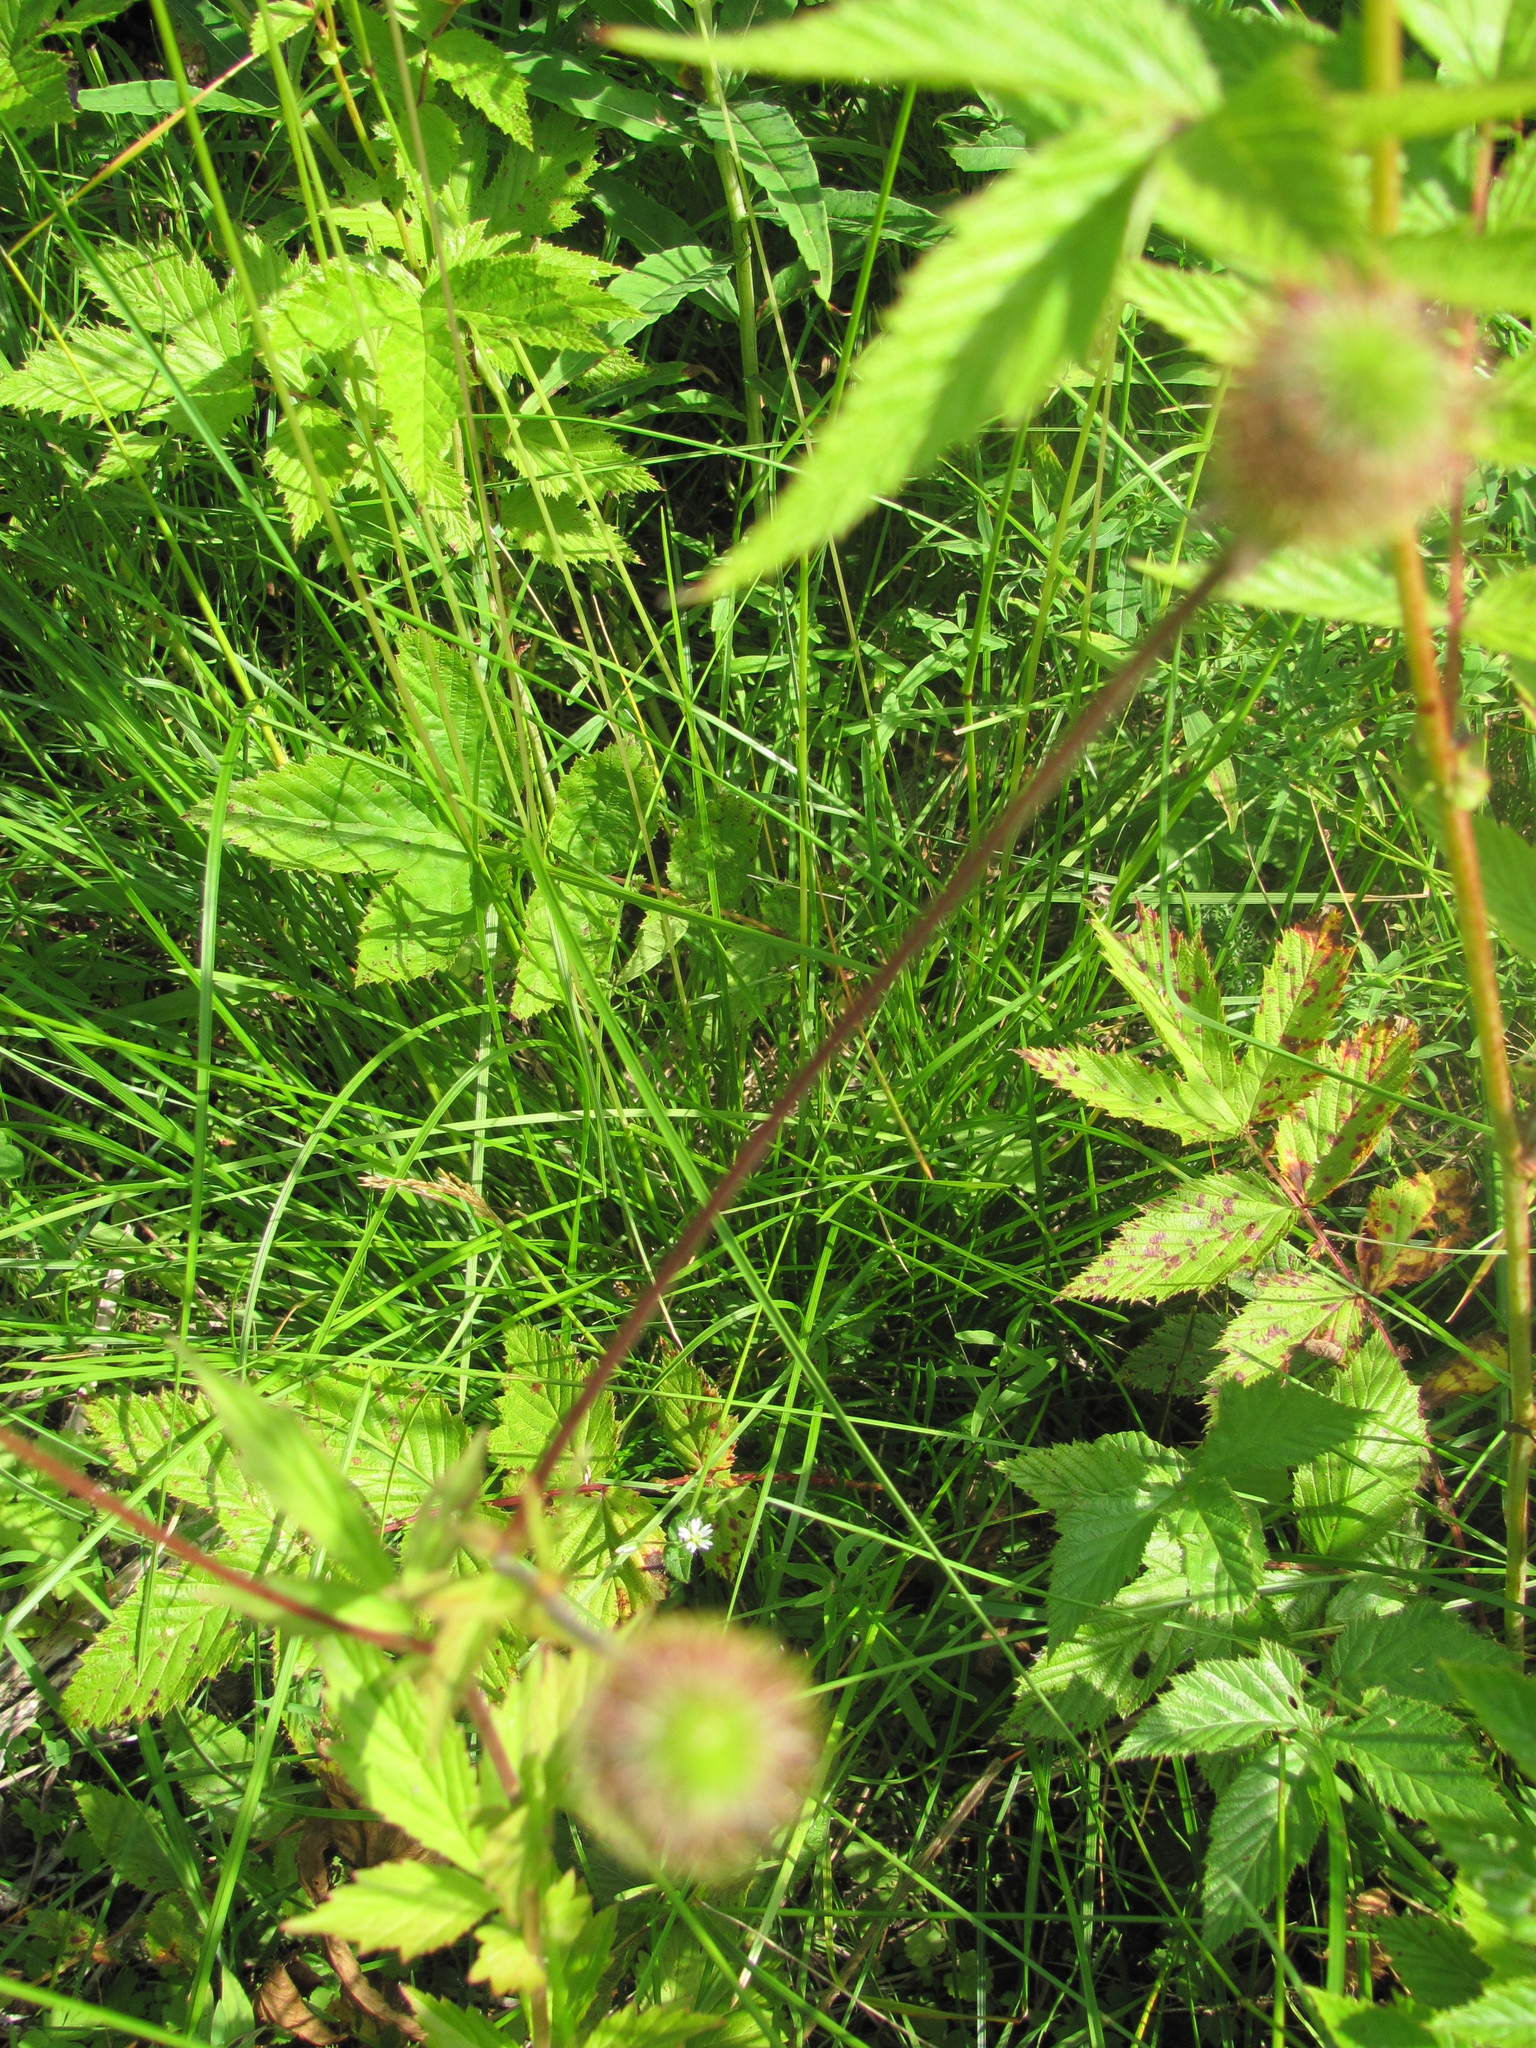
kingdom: Plantae
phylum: Tracheophyta
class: Magnoliopsida
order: Rosales
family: Rosaceae
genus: Geum
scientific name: Geum aleppicum
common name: Yellow avens
